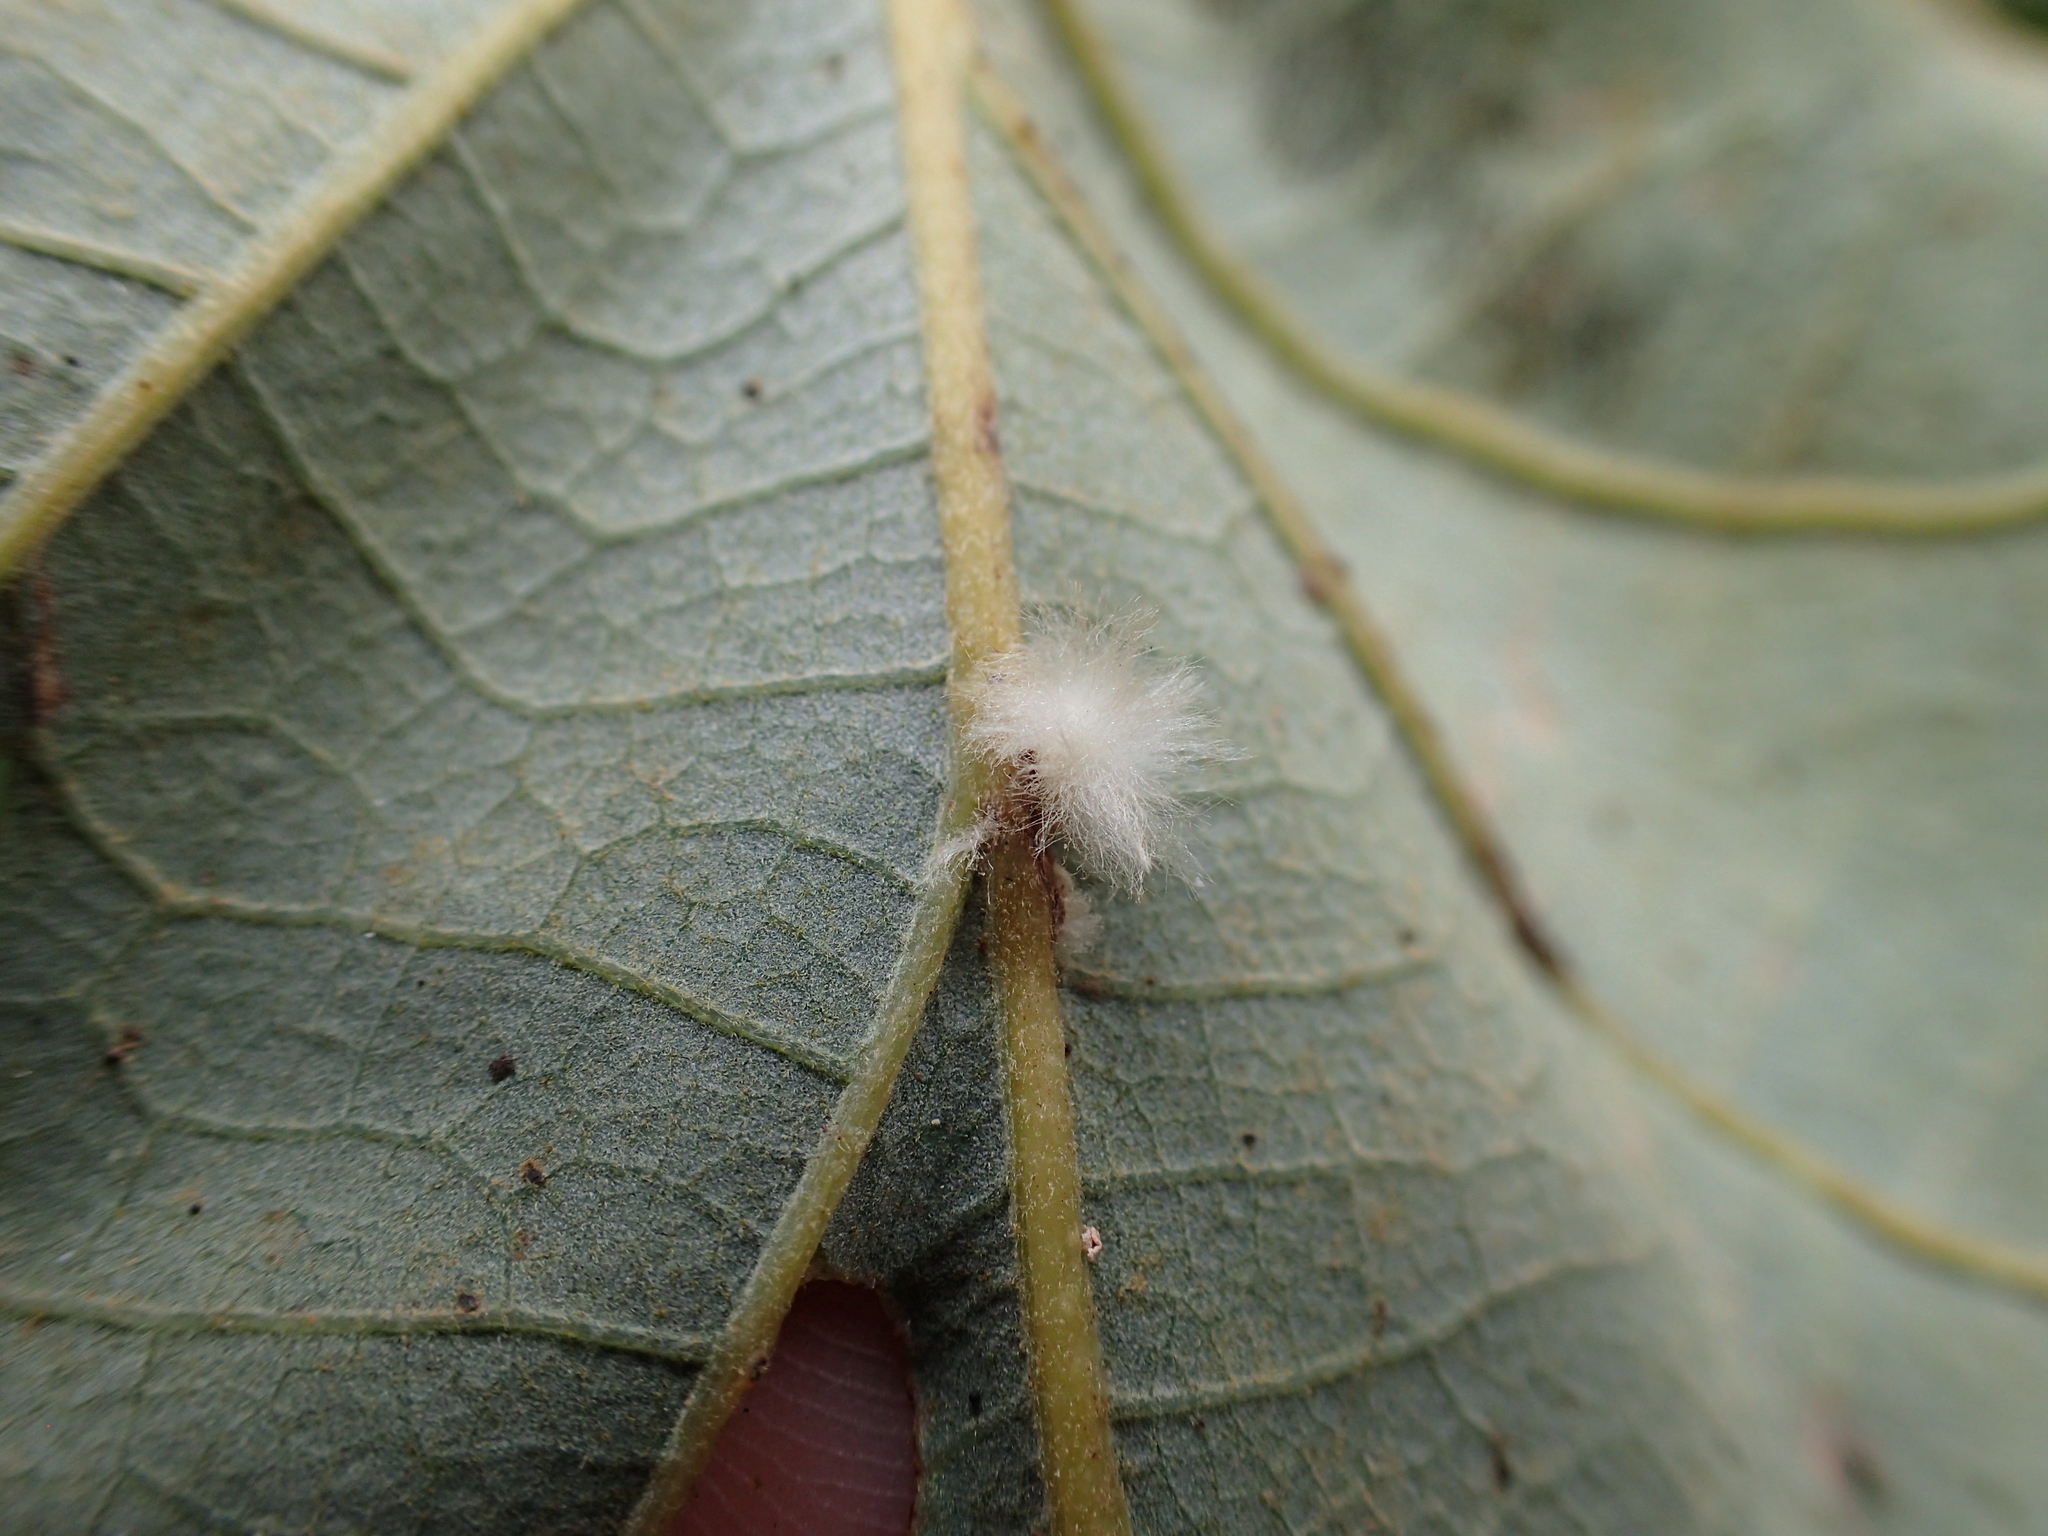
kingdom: Animalia
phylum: Arthropoda
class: Insecta
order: Hymenoptera
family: Cynipidae
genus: Andricus
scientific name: Andricus Druon ignotum
